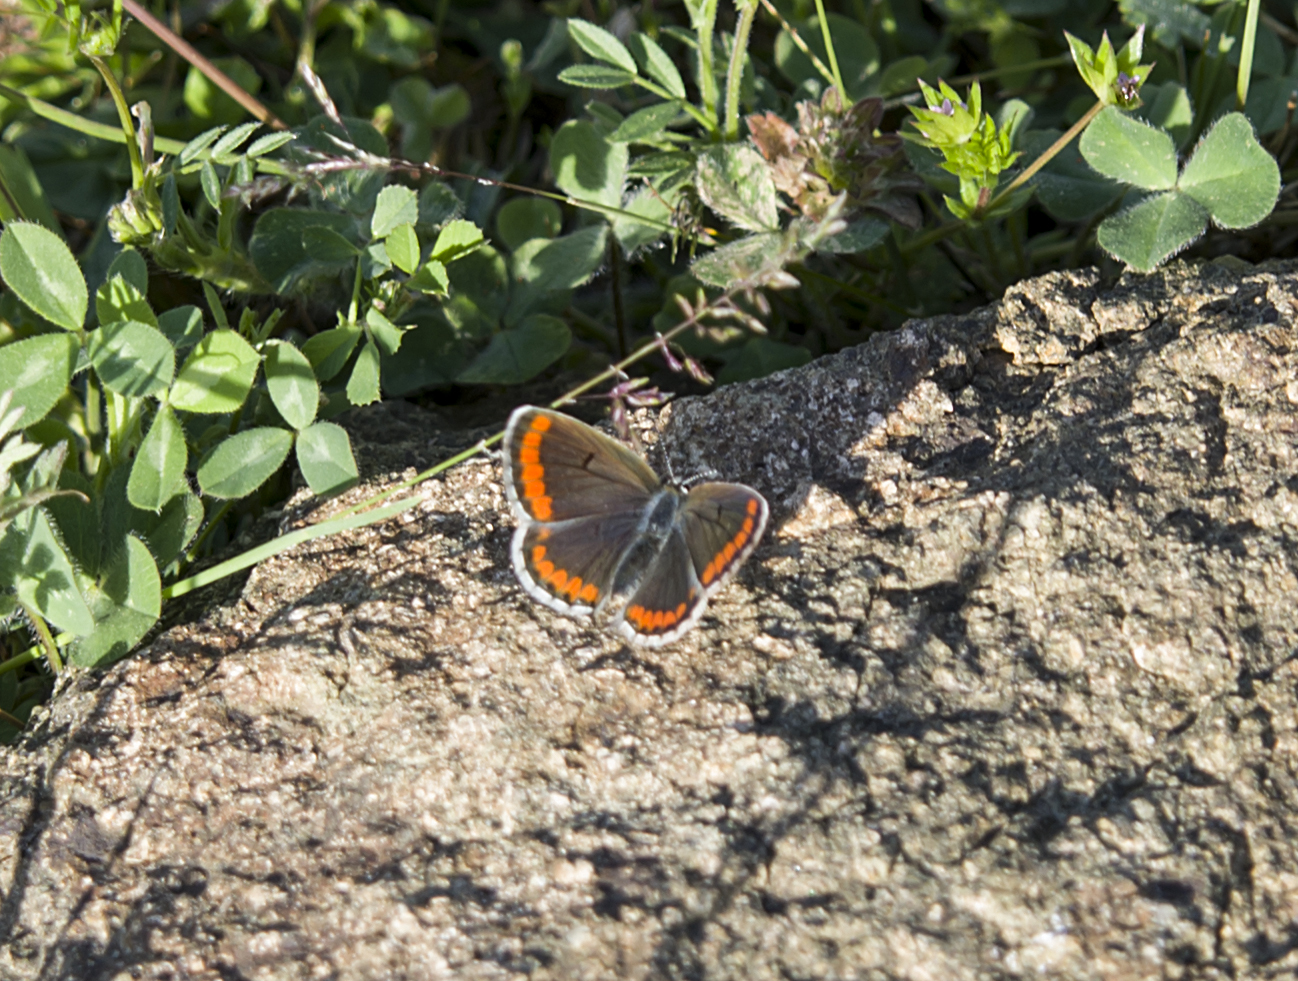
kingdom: Animalia
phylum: Arthropoda
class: Insecta
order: Lepidoptera
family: Lycaenidae
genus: Aricia
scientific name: Aricia agestis
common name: Brown argus
